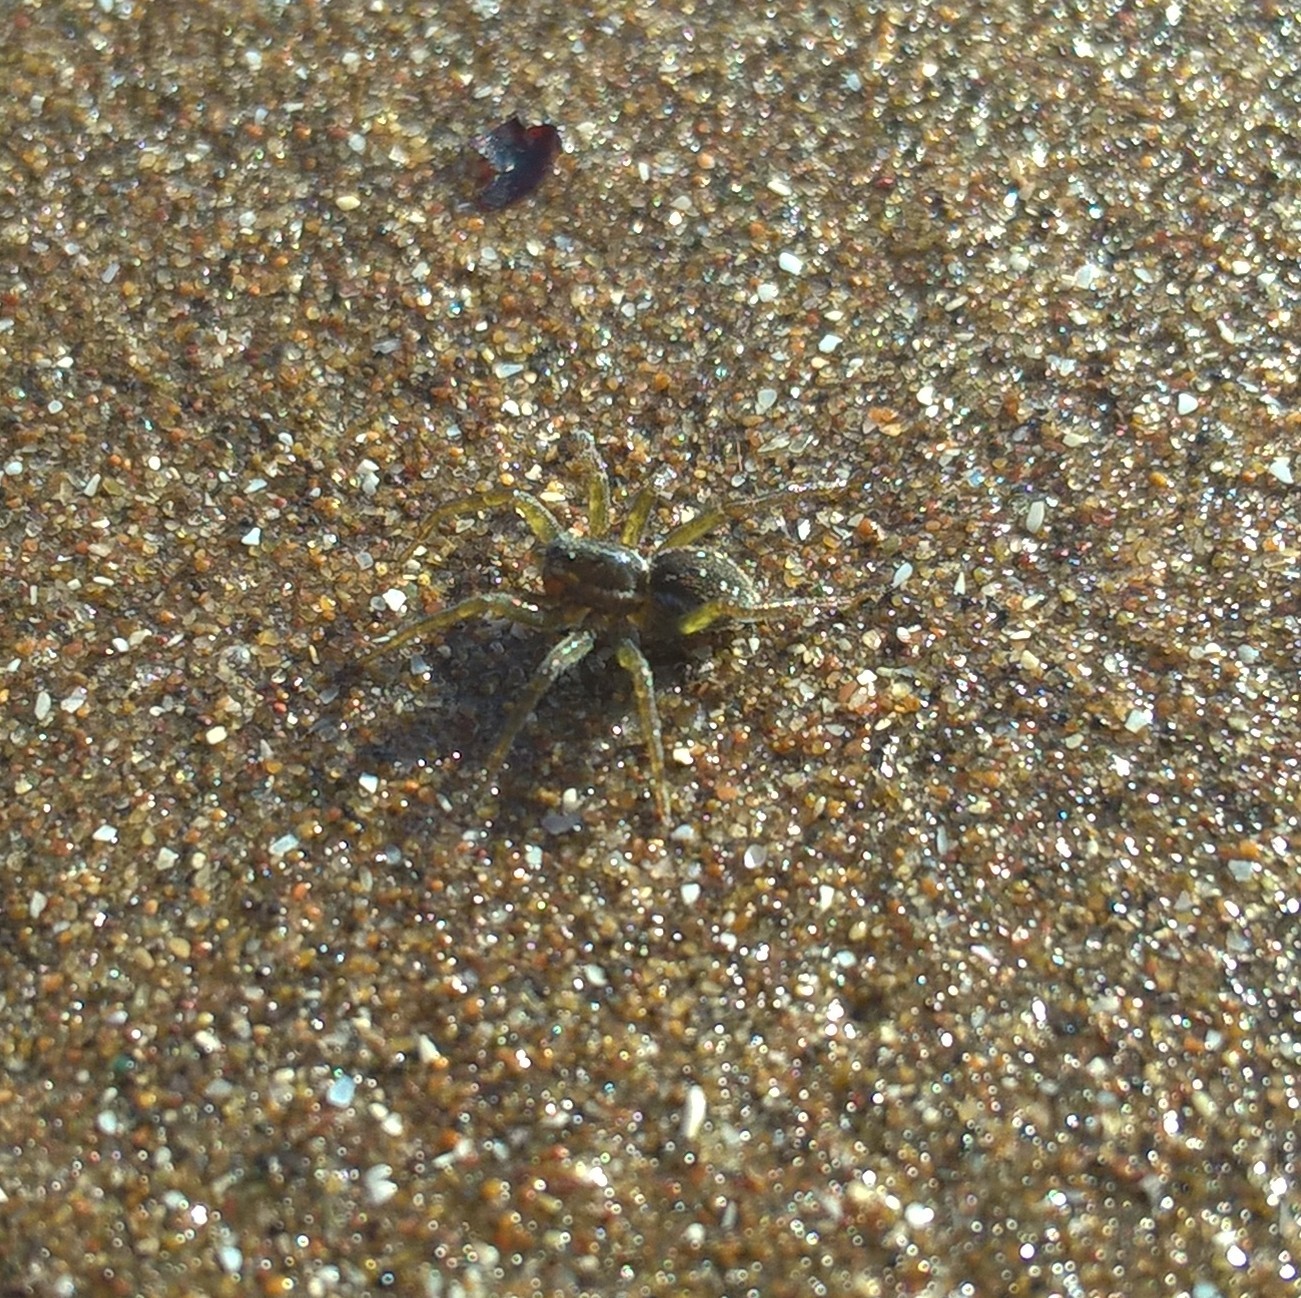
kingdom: Animalia
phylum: Arthropoda
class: Arachnida
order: Araneae
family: Lycosidae
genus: Diapontia
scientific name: Diapontia uruguayensis
